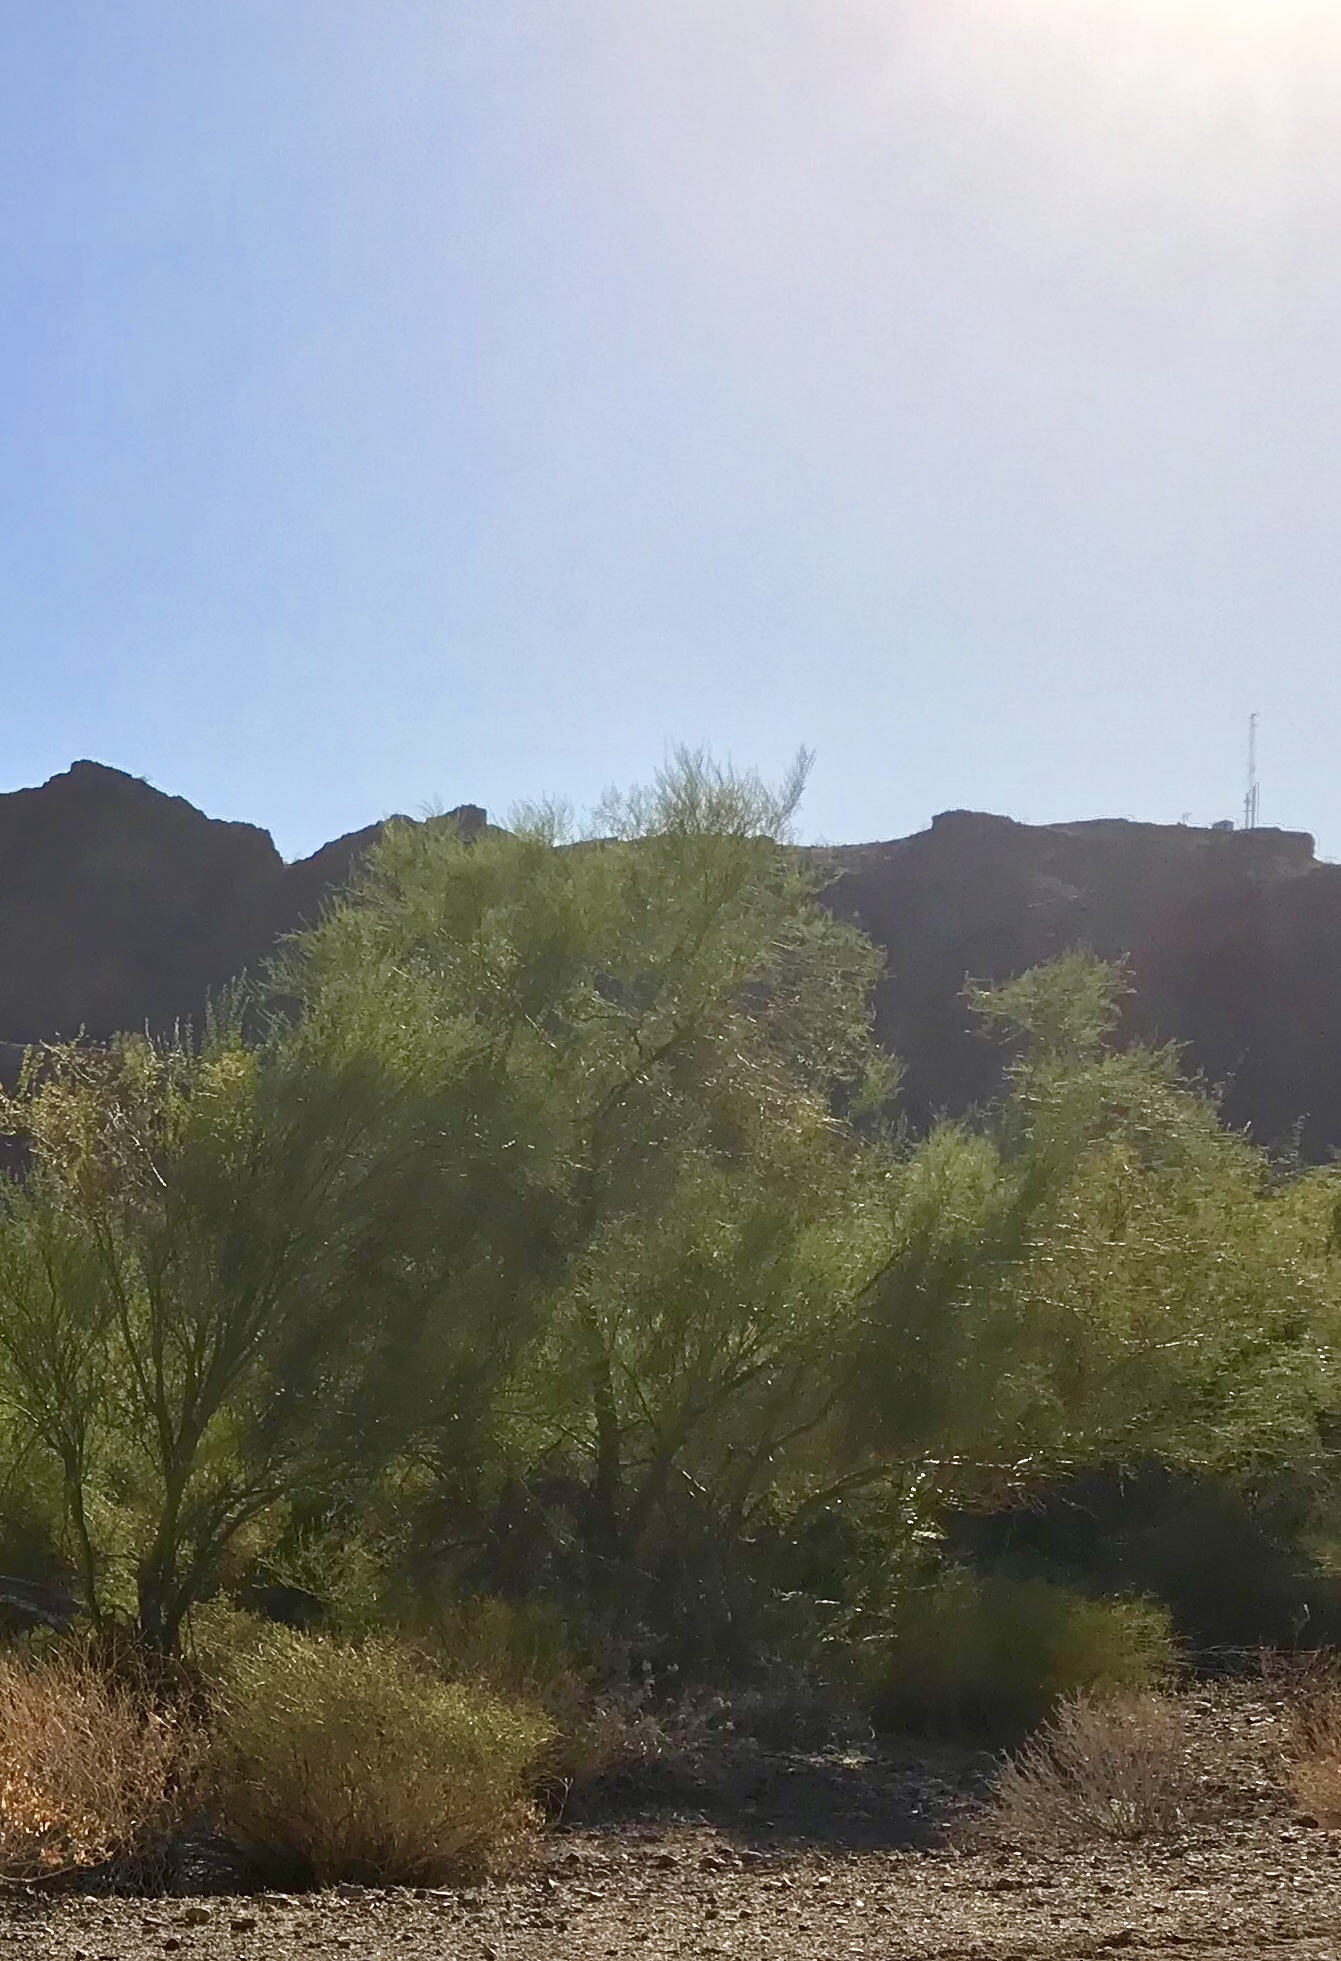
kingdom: Plantae
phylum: Tracheophyta
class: Magnoliopsida
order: Fabales
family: Fabaceae
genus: Parkinsonia
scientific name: Parkinsonia aculeata
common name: Jerusalem thorn
